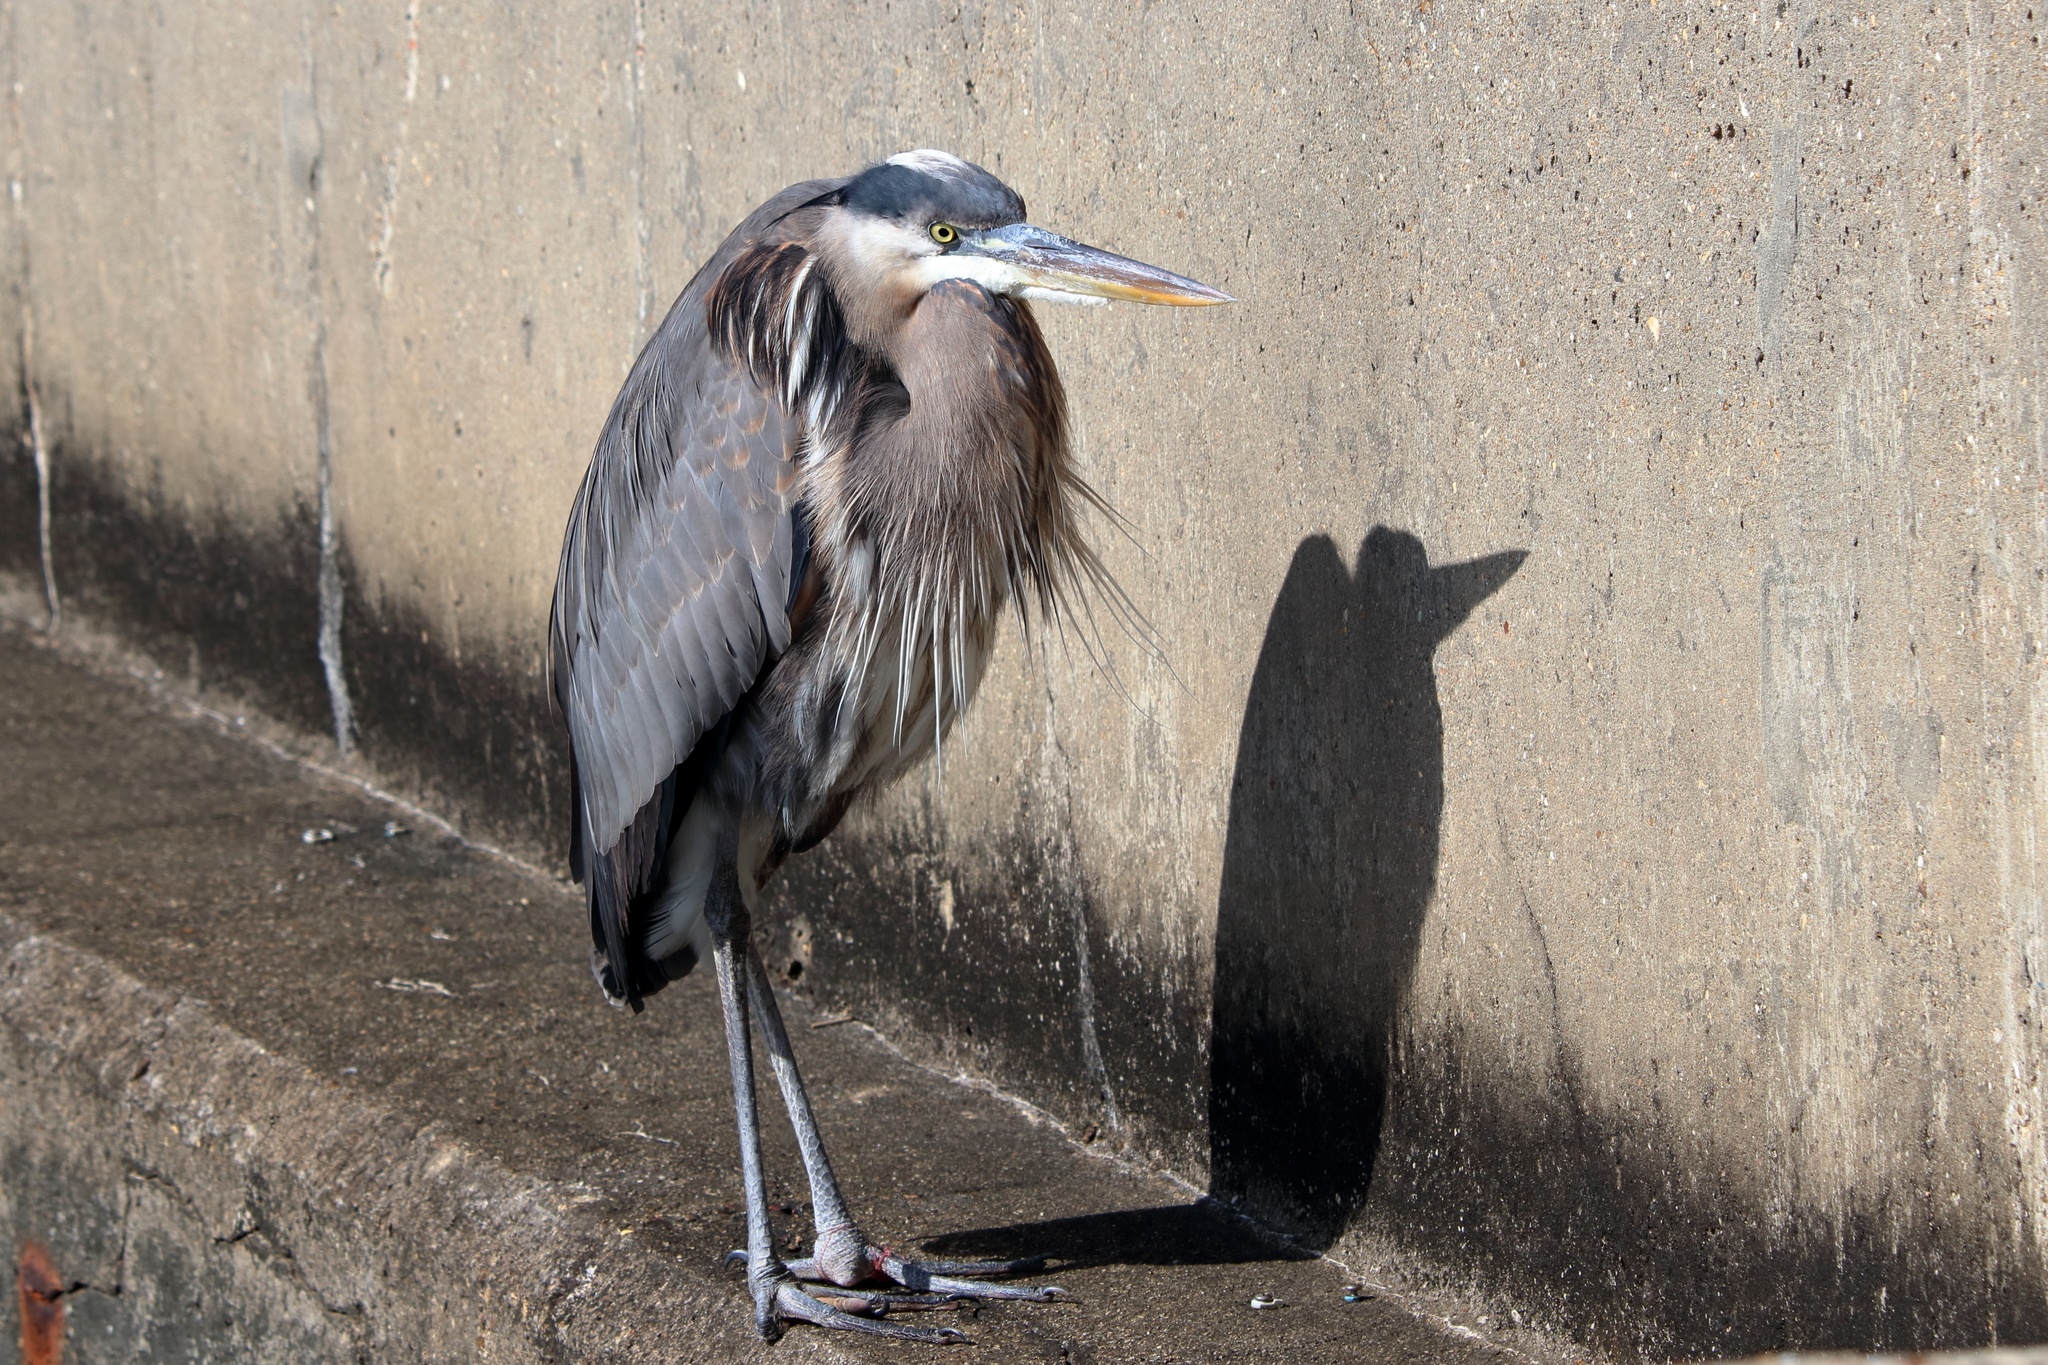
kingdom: Animalia
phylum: Chordata
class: Aves
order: Pelecaniformes
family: Ardeidae
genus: Ardea
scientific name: Ardea herodias
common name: Great blue heron
